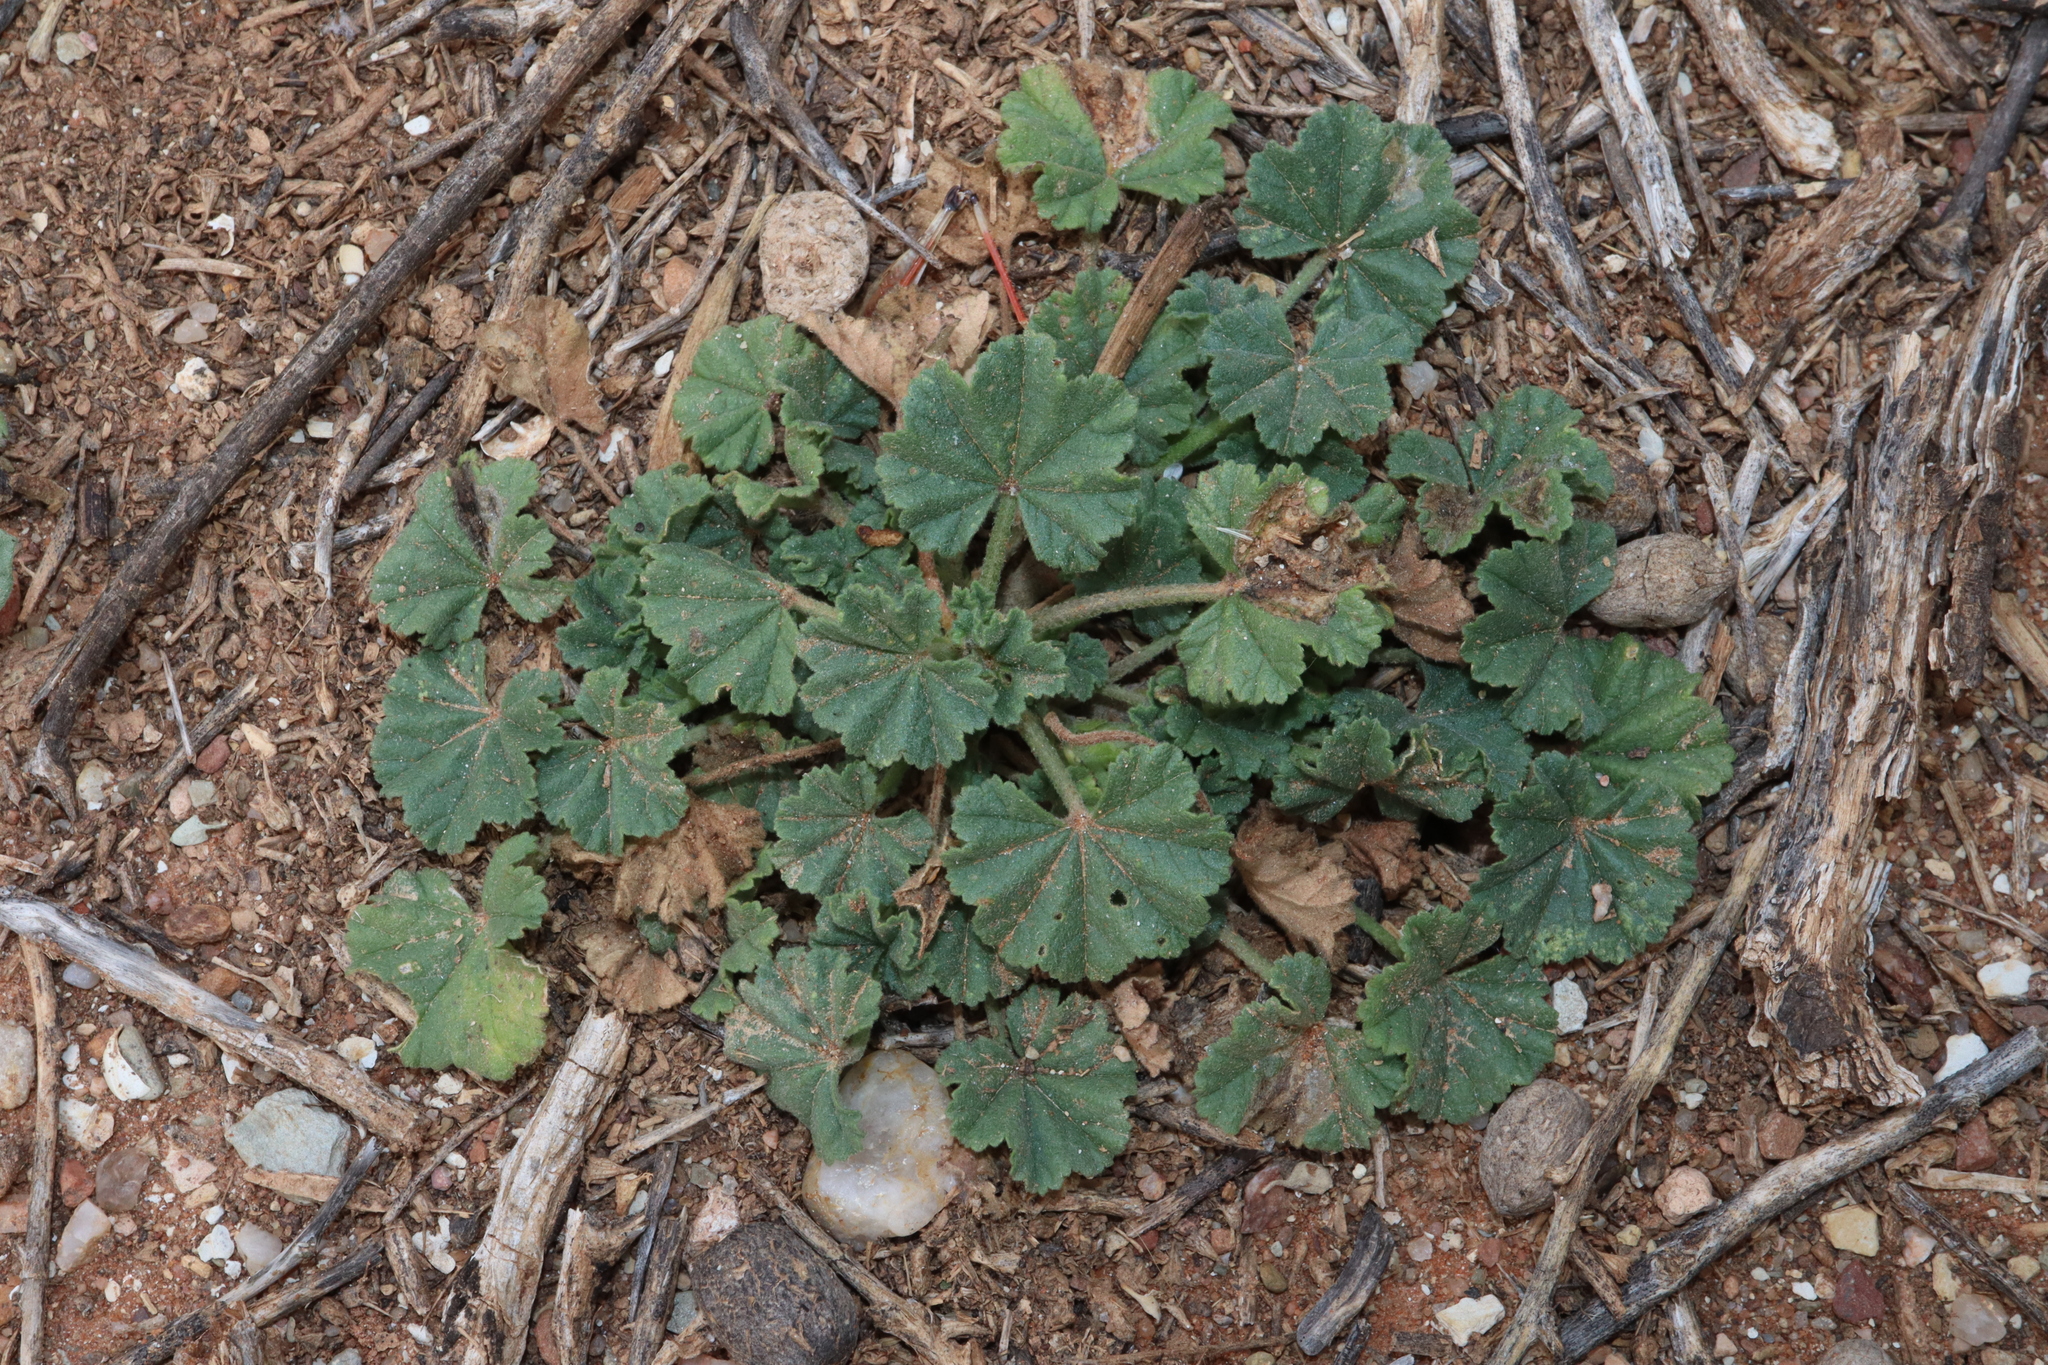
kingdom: Plantae
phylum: Tracheophyta
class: Magnoliopsida
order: Malvales
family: Malvaceae
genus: Malva
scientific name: Malva parviflora
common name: Least mallow
